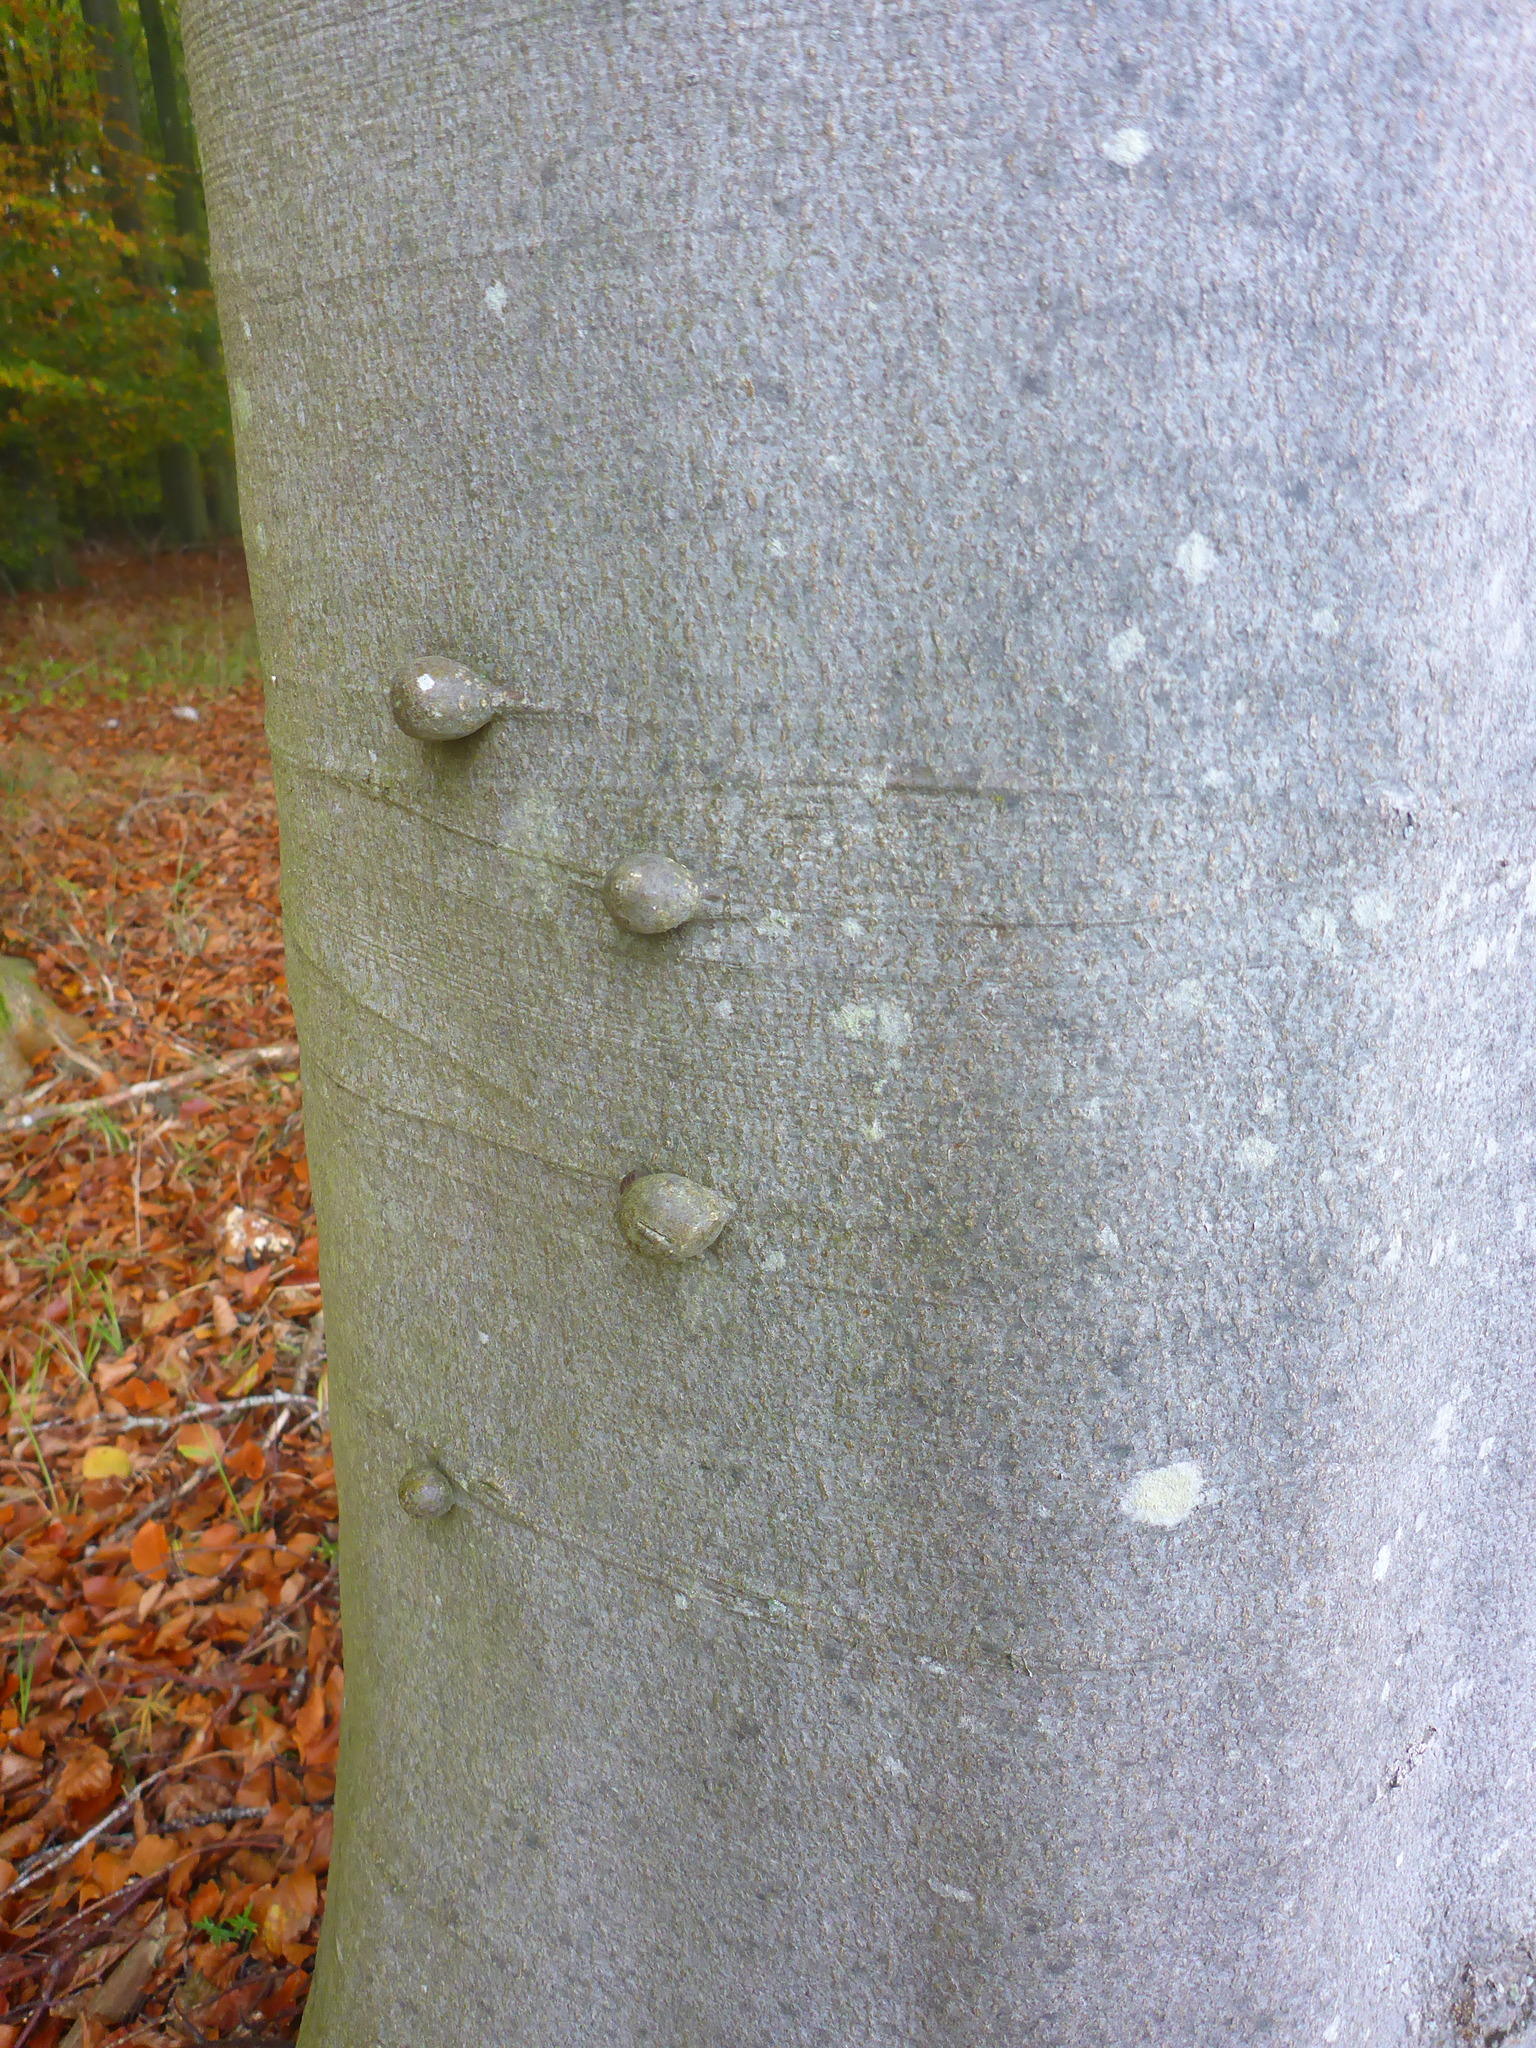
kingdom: Plantae
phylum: Tracheophyta
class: Magnoliopsida
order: Fagales
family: Fagaceae
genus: Fagus
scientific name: Fagus sylvatica
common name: Beech
